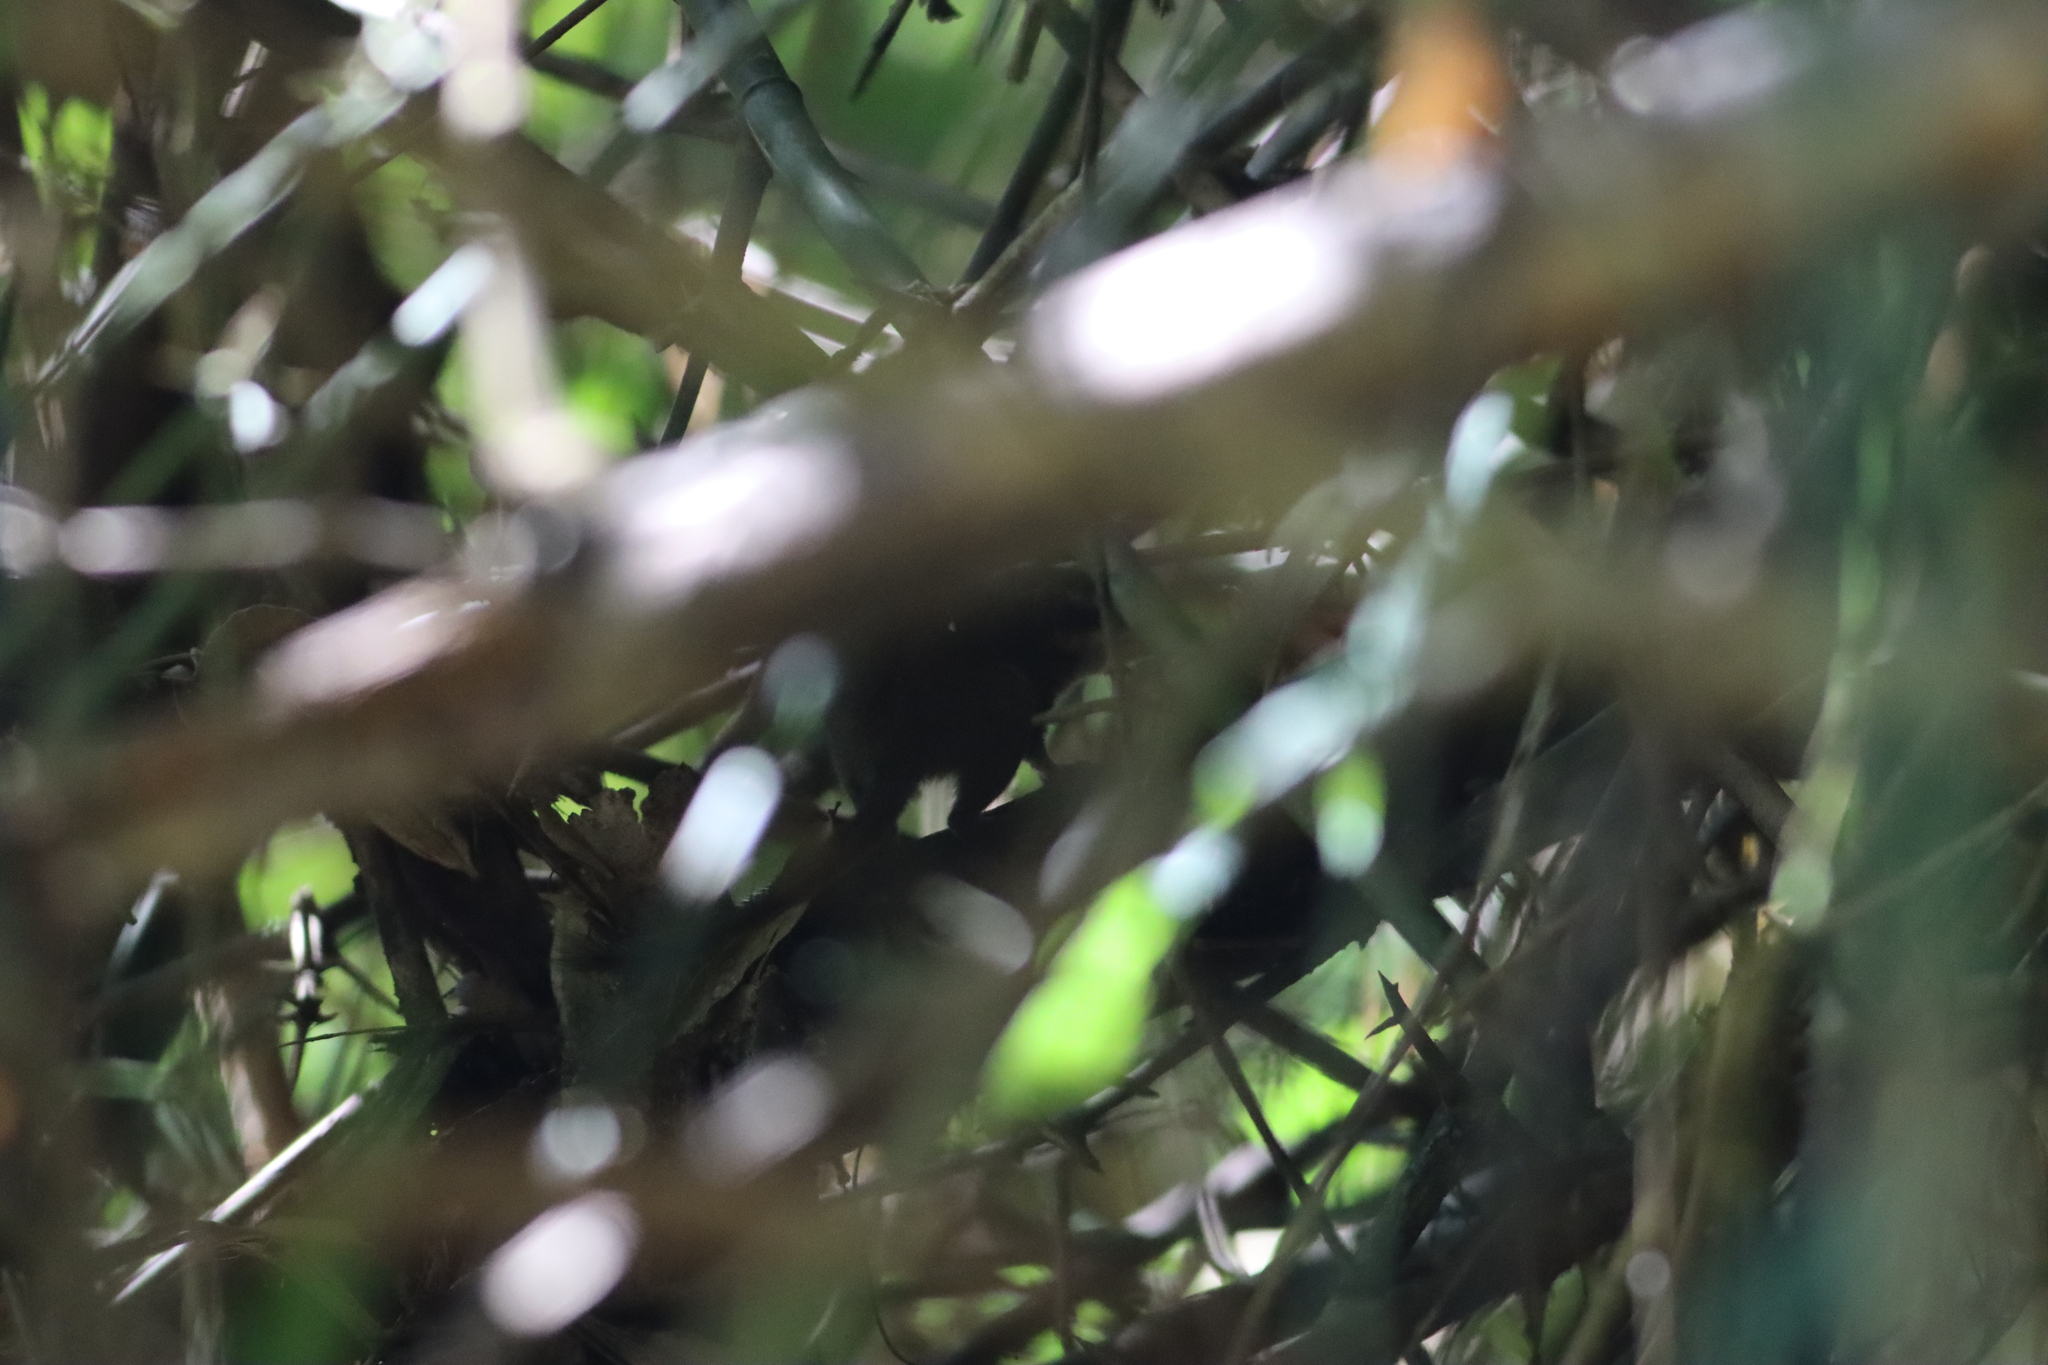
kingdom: Animalia
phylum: Chordata
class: Mammalia
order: Scandentia
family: Tupaiidae
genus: Dendrogale
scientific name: Dendrogale murina
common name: Northern smooth-tailed treeshrew
